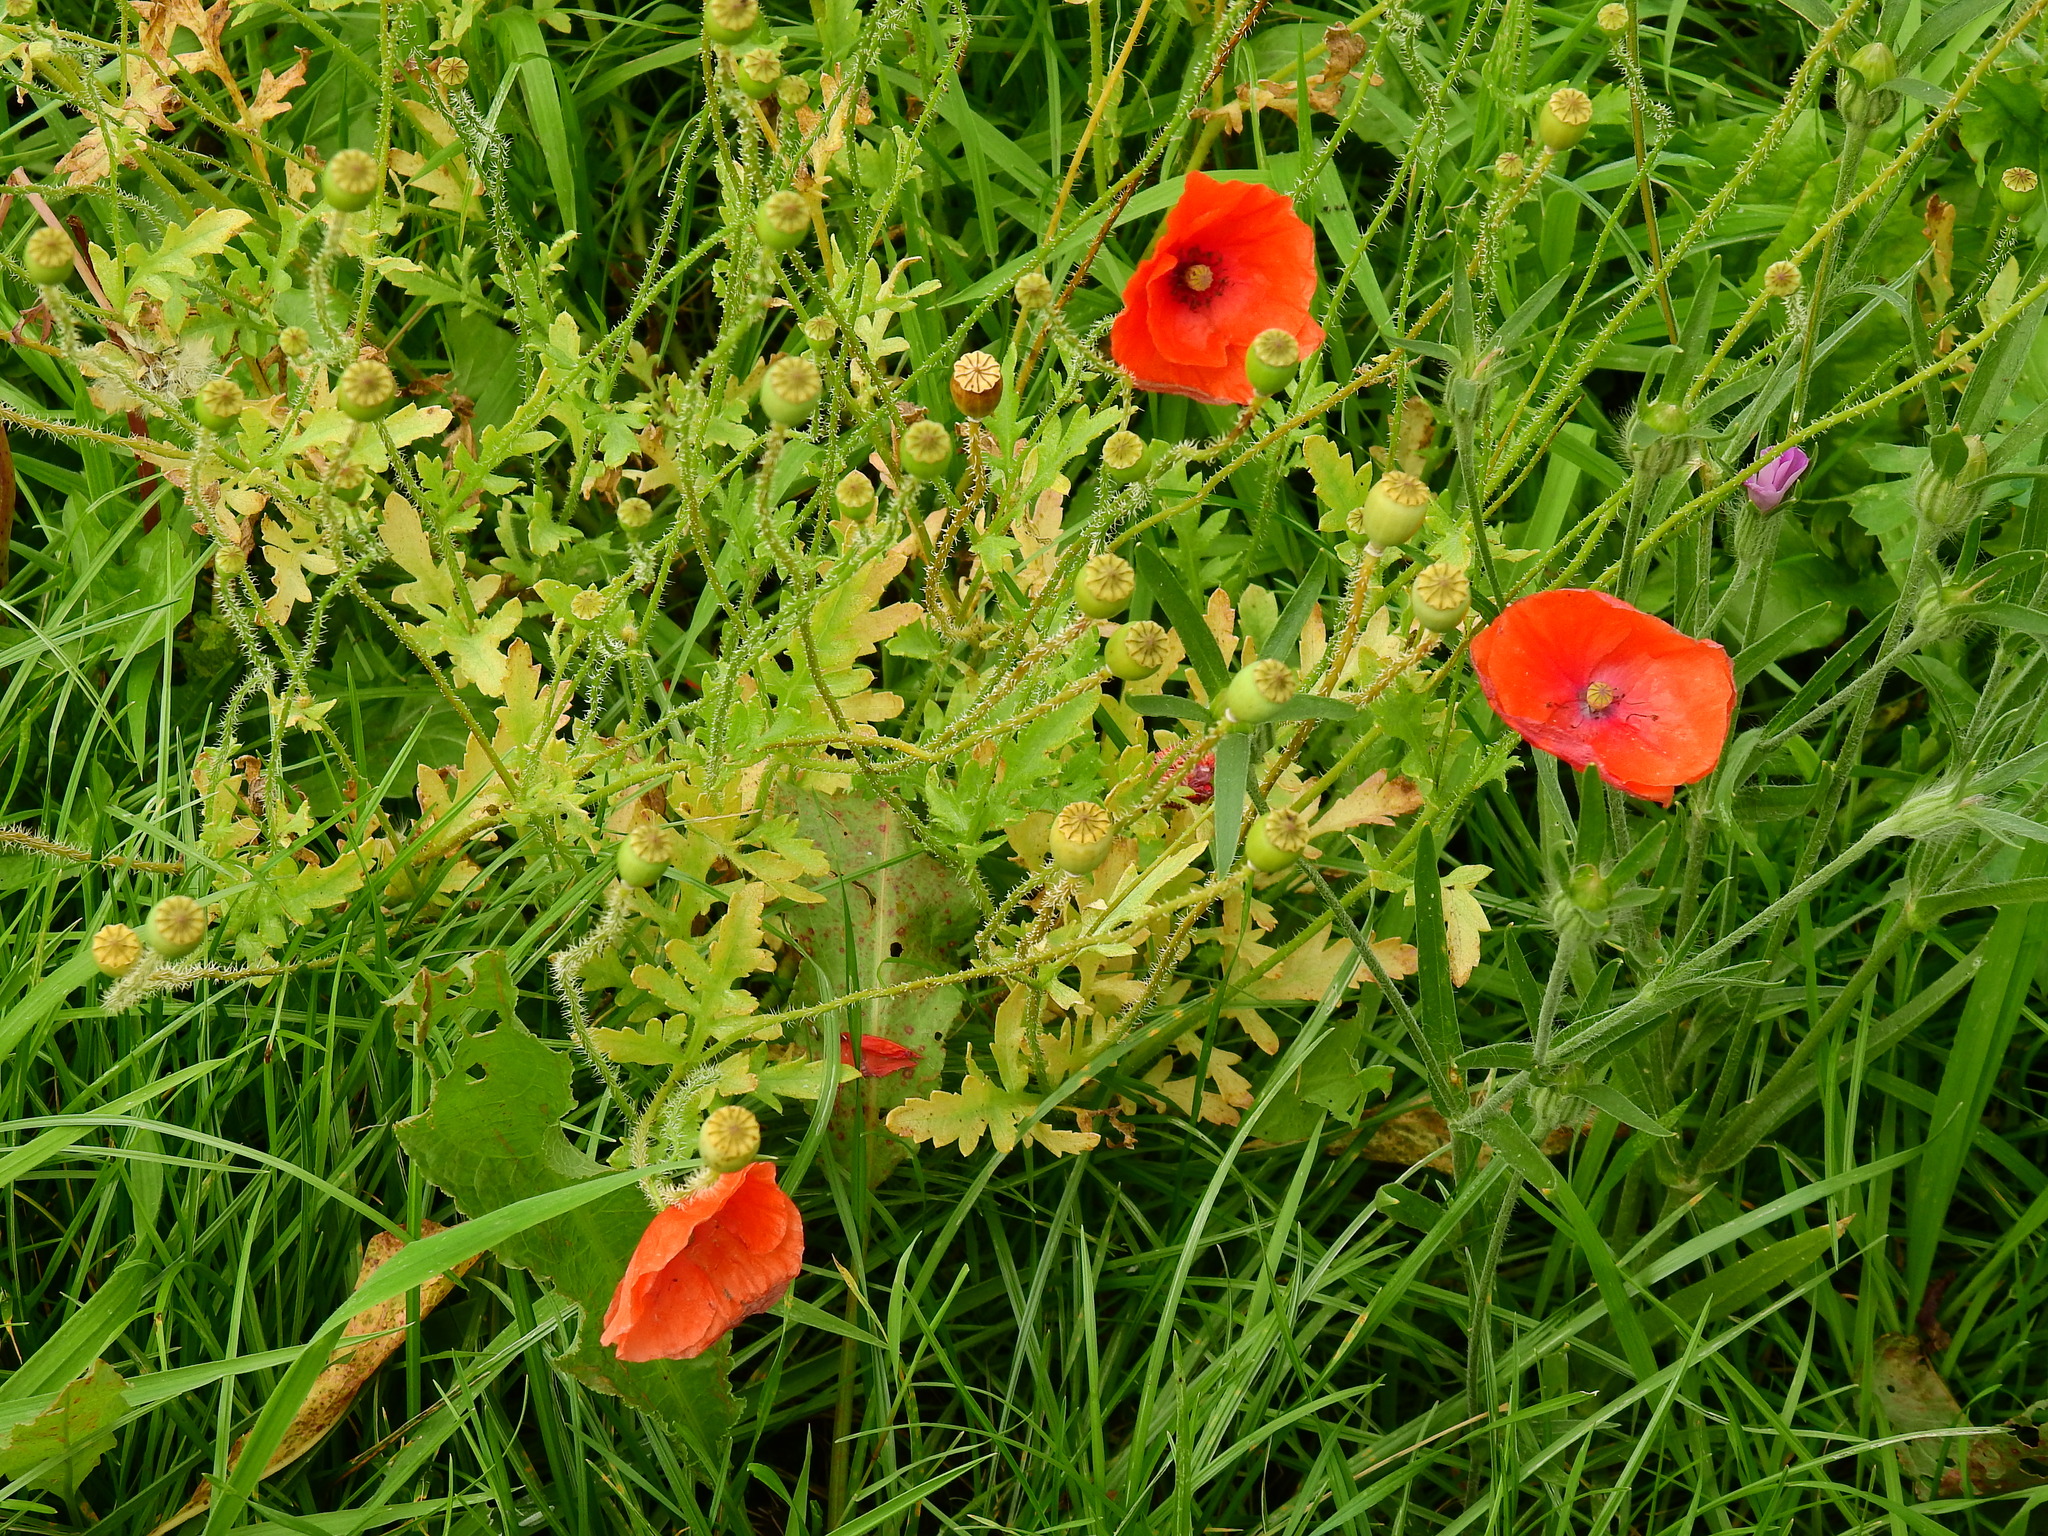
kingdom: Plantae
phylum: Tracheophyta
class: Magnoliopsida
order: Ranunculales
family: Papaveraceae
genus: Papaver
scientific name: Papaver rhoeas
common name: Corn poppy
